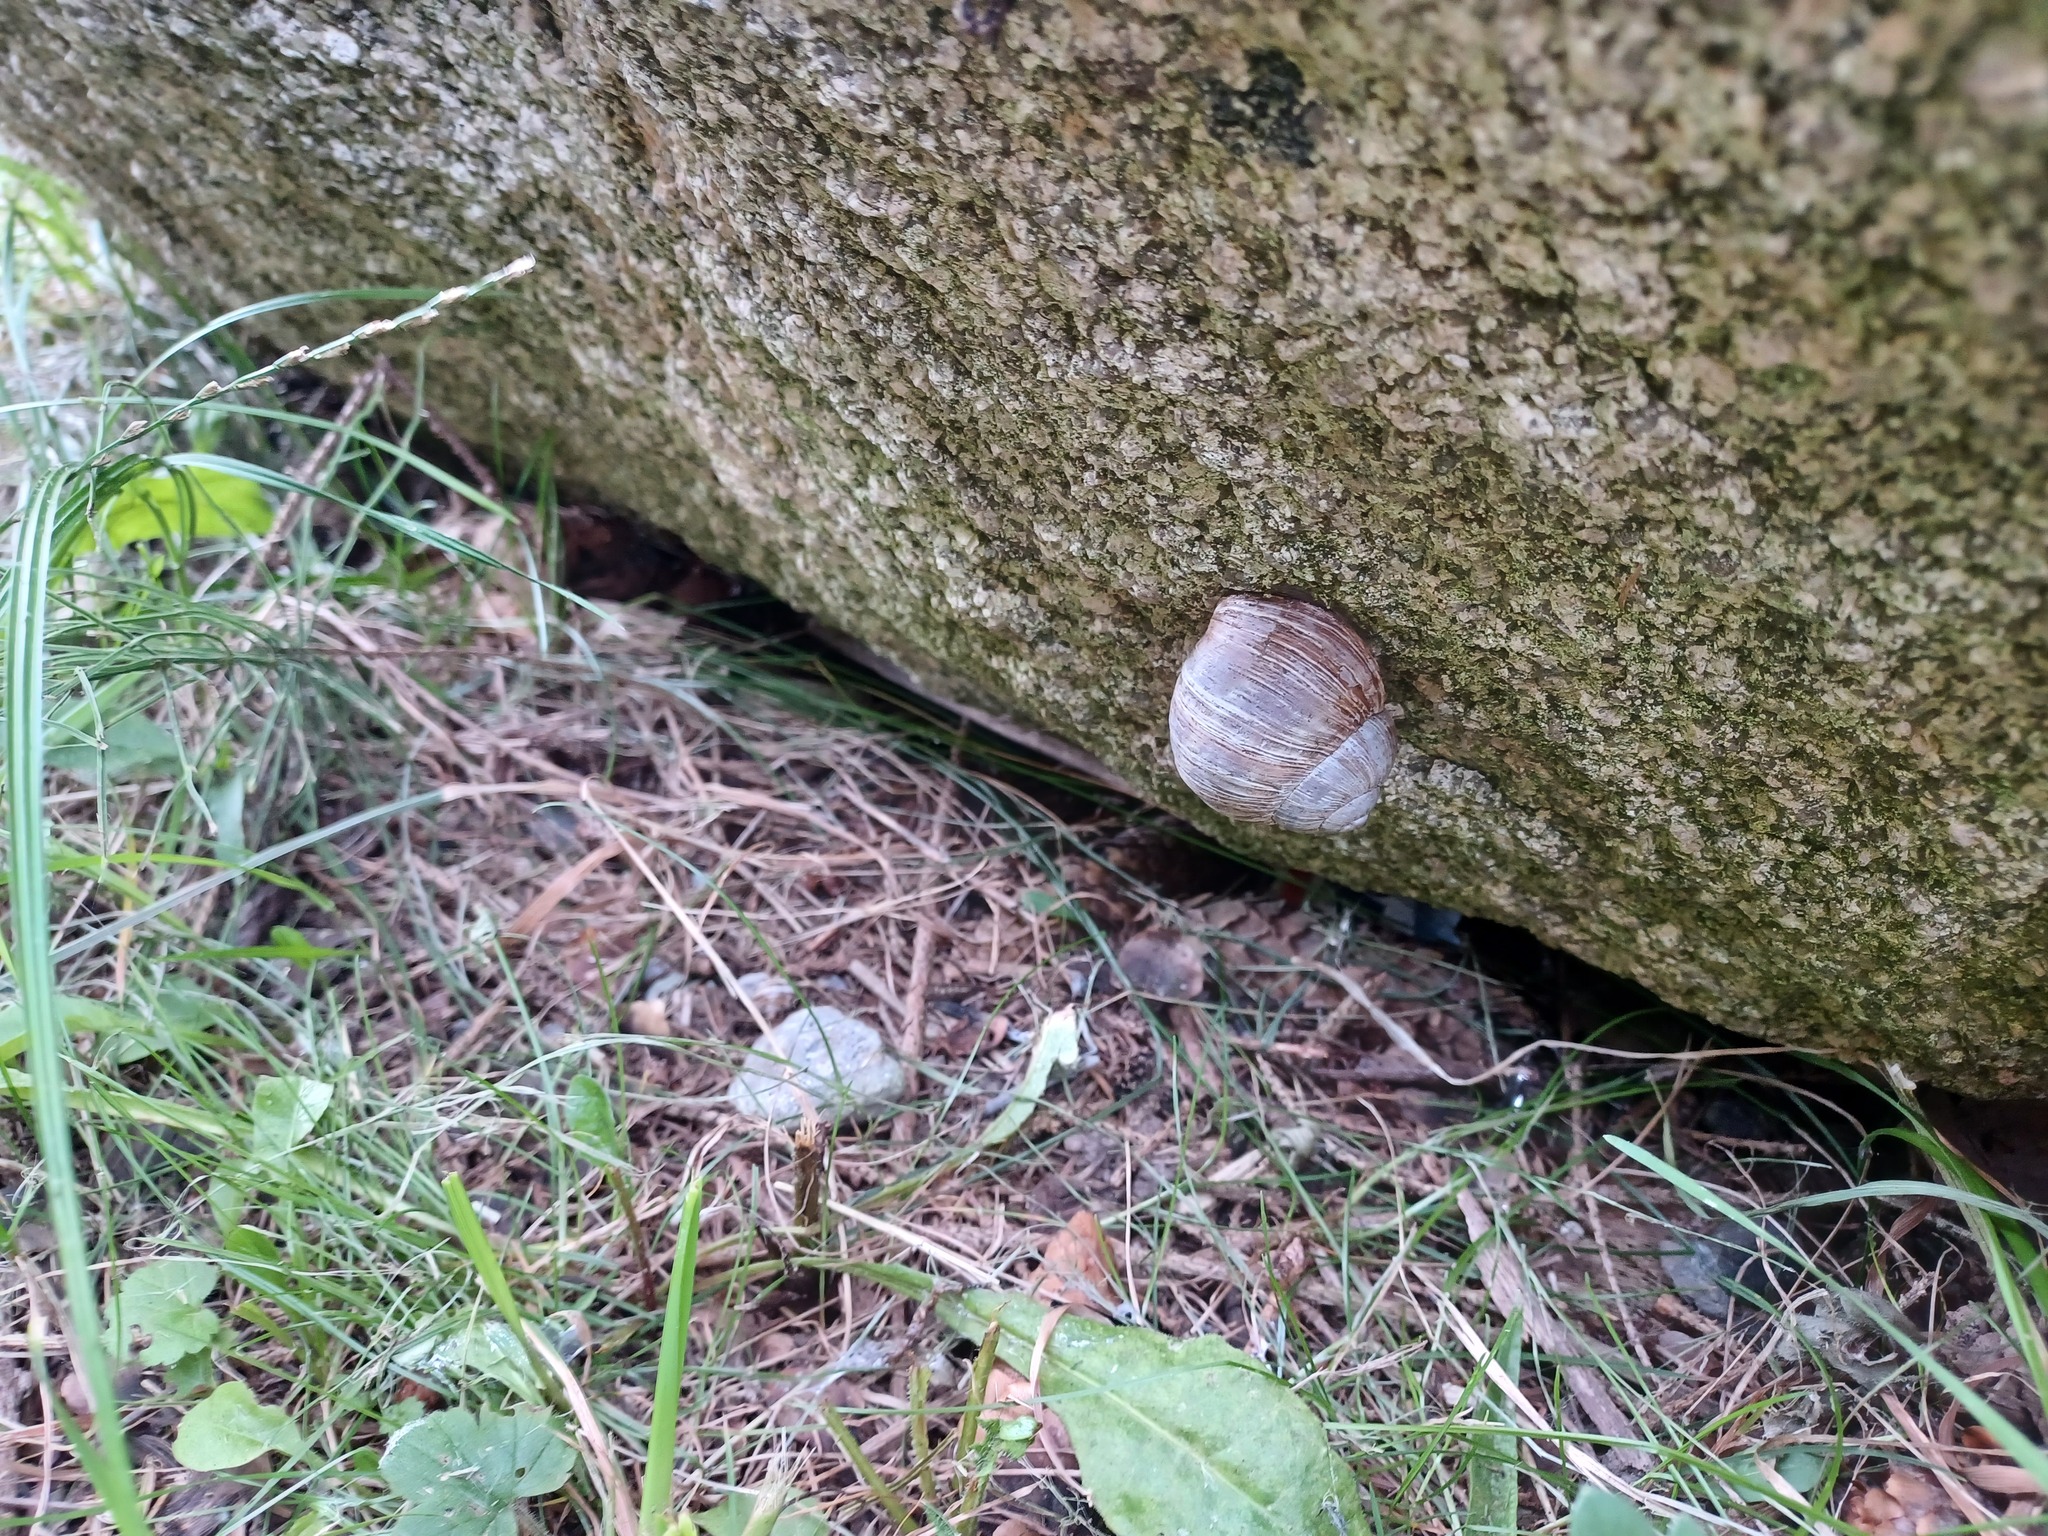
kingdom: Animalia
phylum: Mollusca
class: Gastropoda
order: Stylommatophora
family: Helicidae
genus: Helix
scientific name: Helix pomatia
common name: Roman snail
